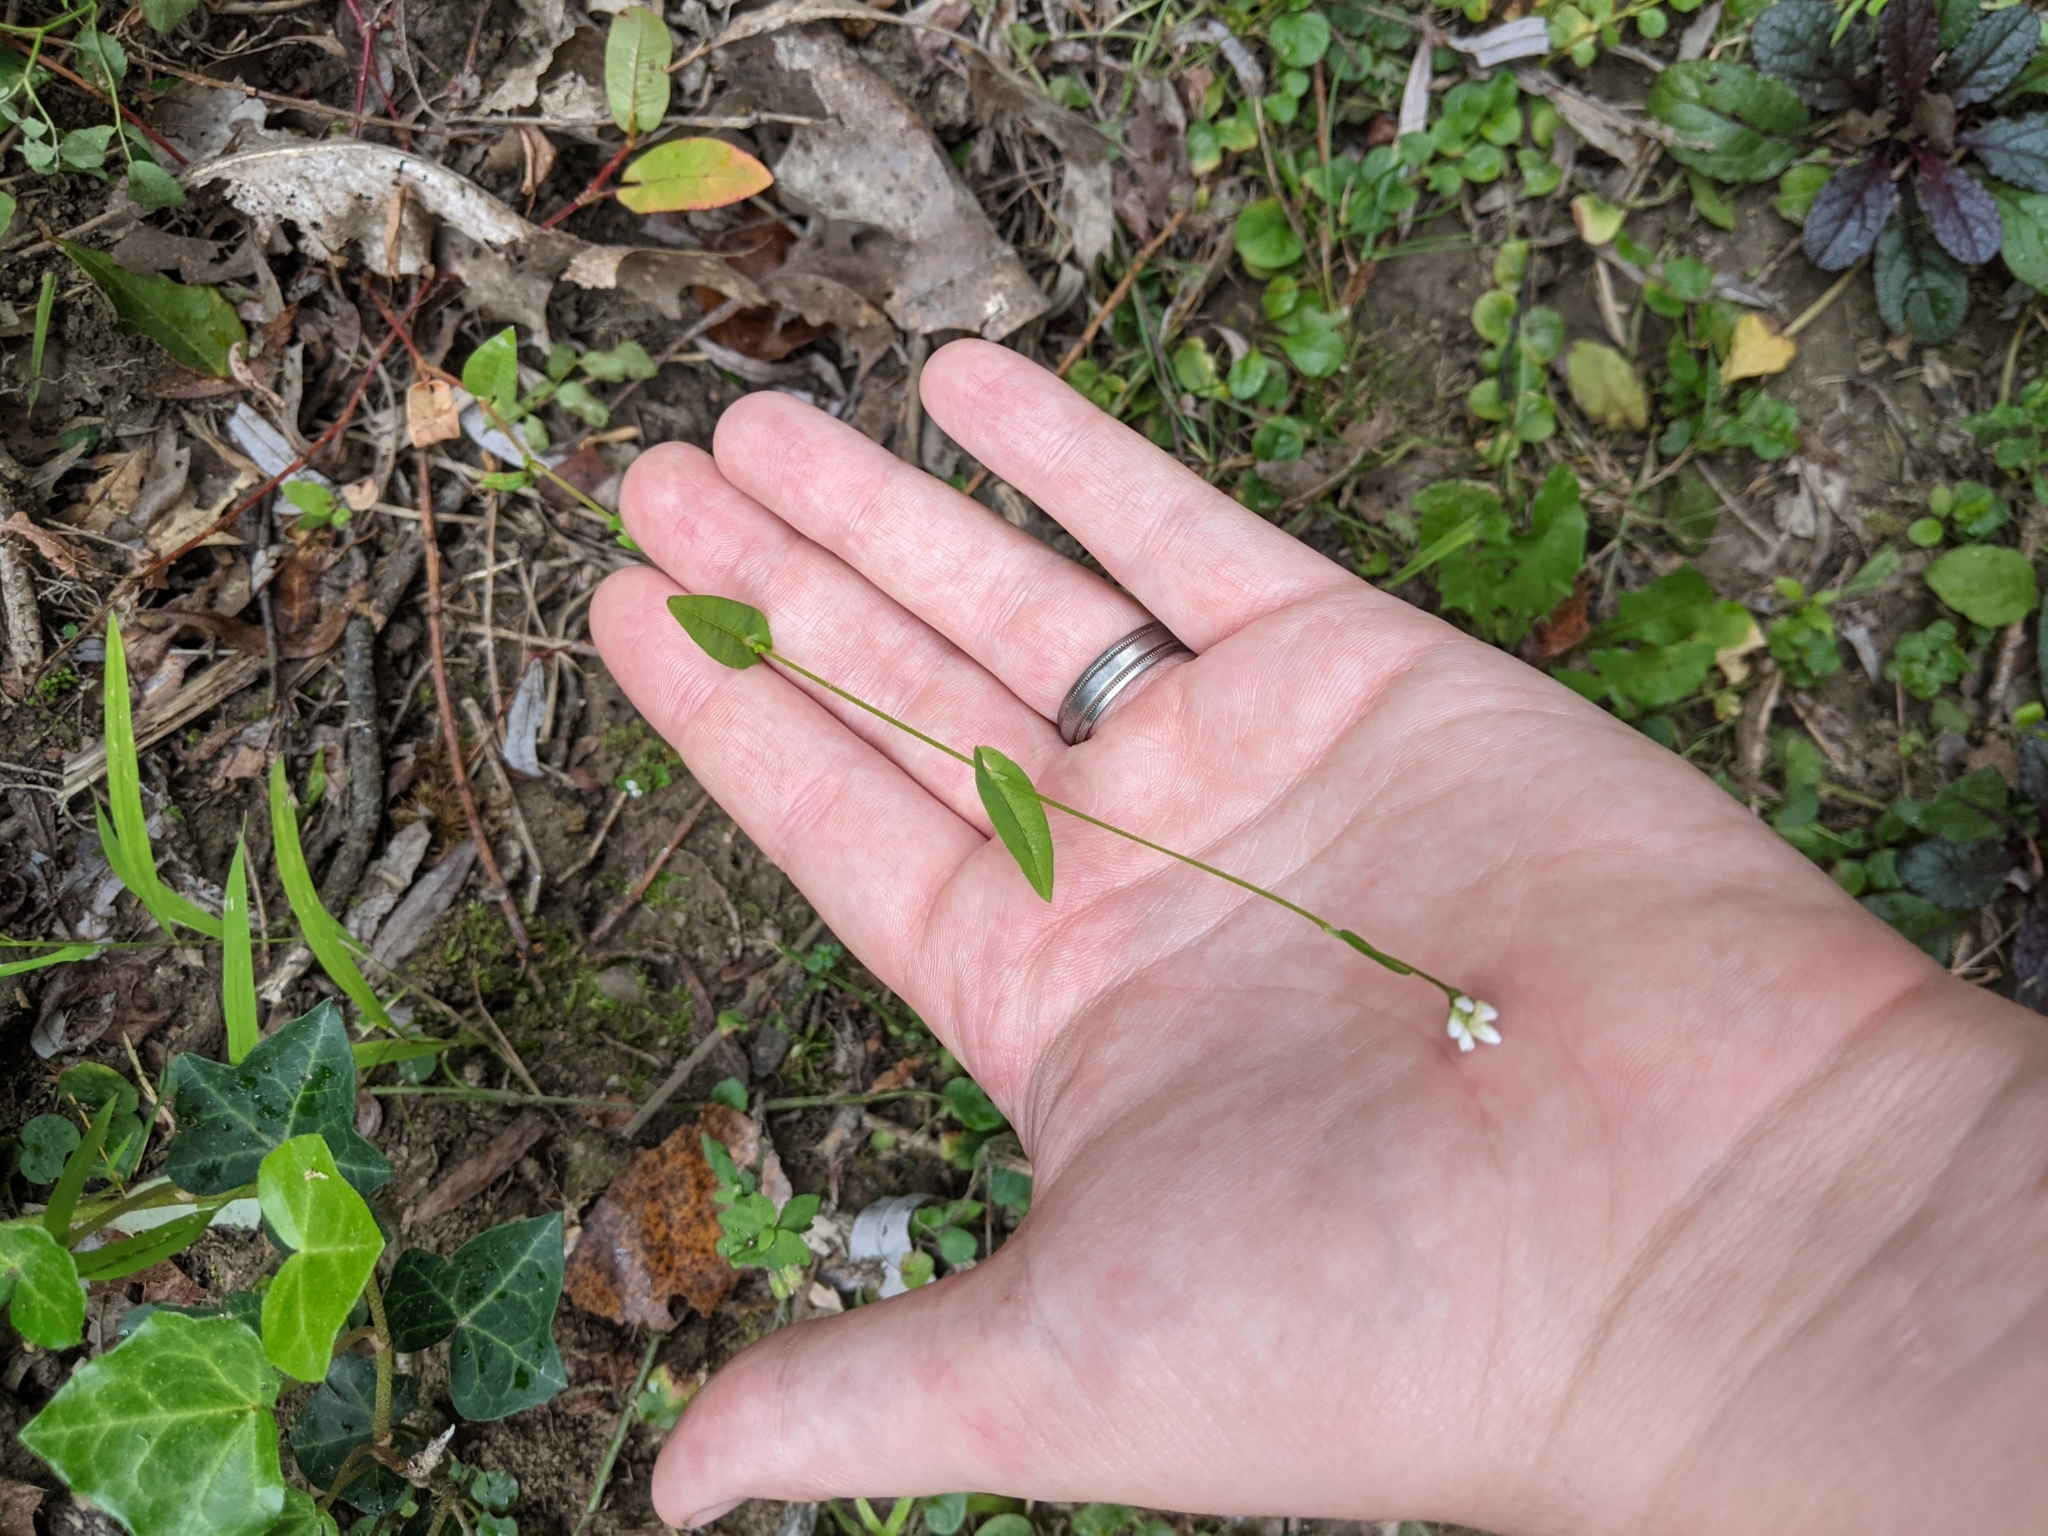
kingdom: Plantae
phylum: Tracheophyta
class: Magnoliopsida
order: Caryophyllales
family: Polygonaceae
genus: Persicaria
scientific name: Persicaria sagittata
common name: American tearthumb
